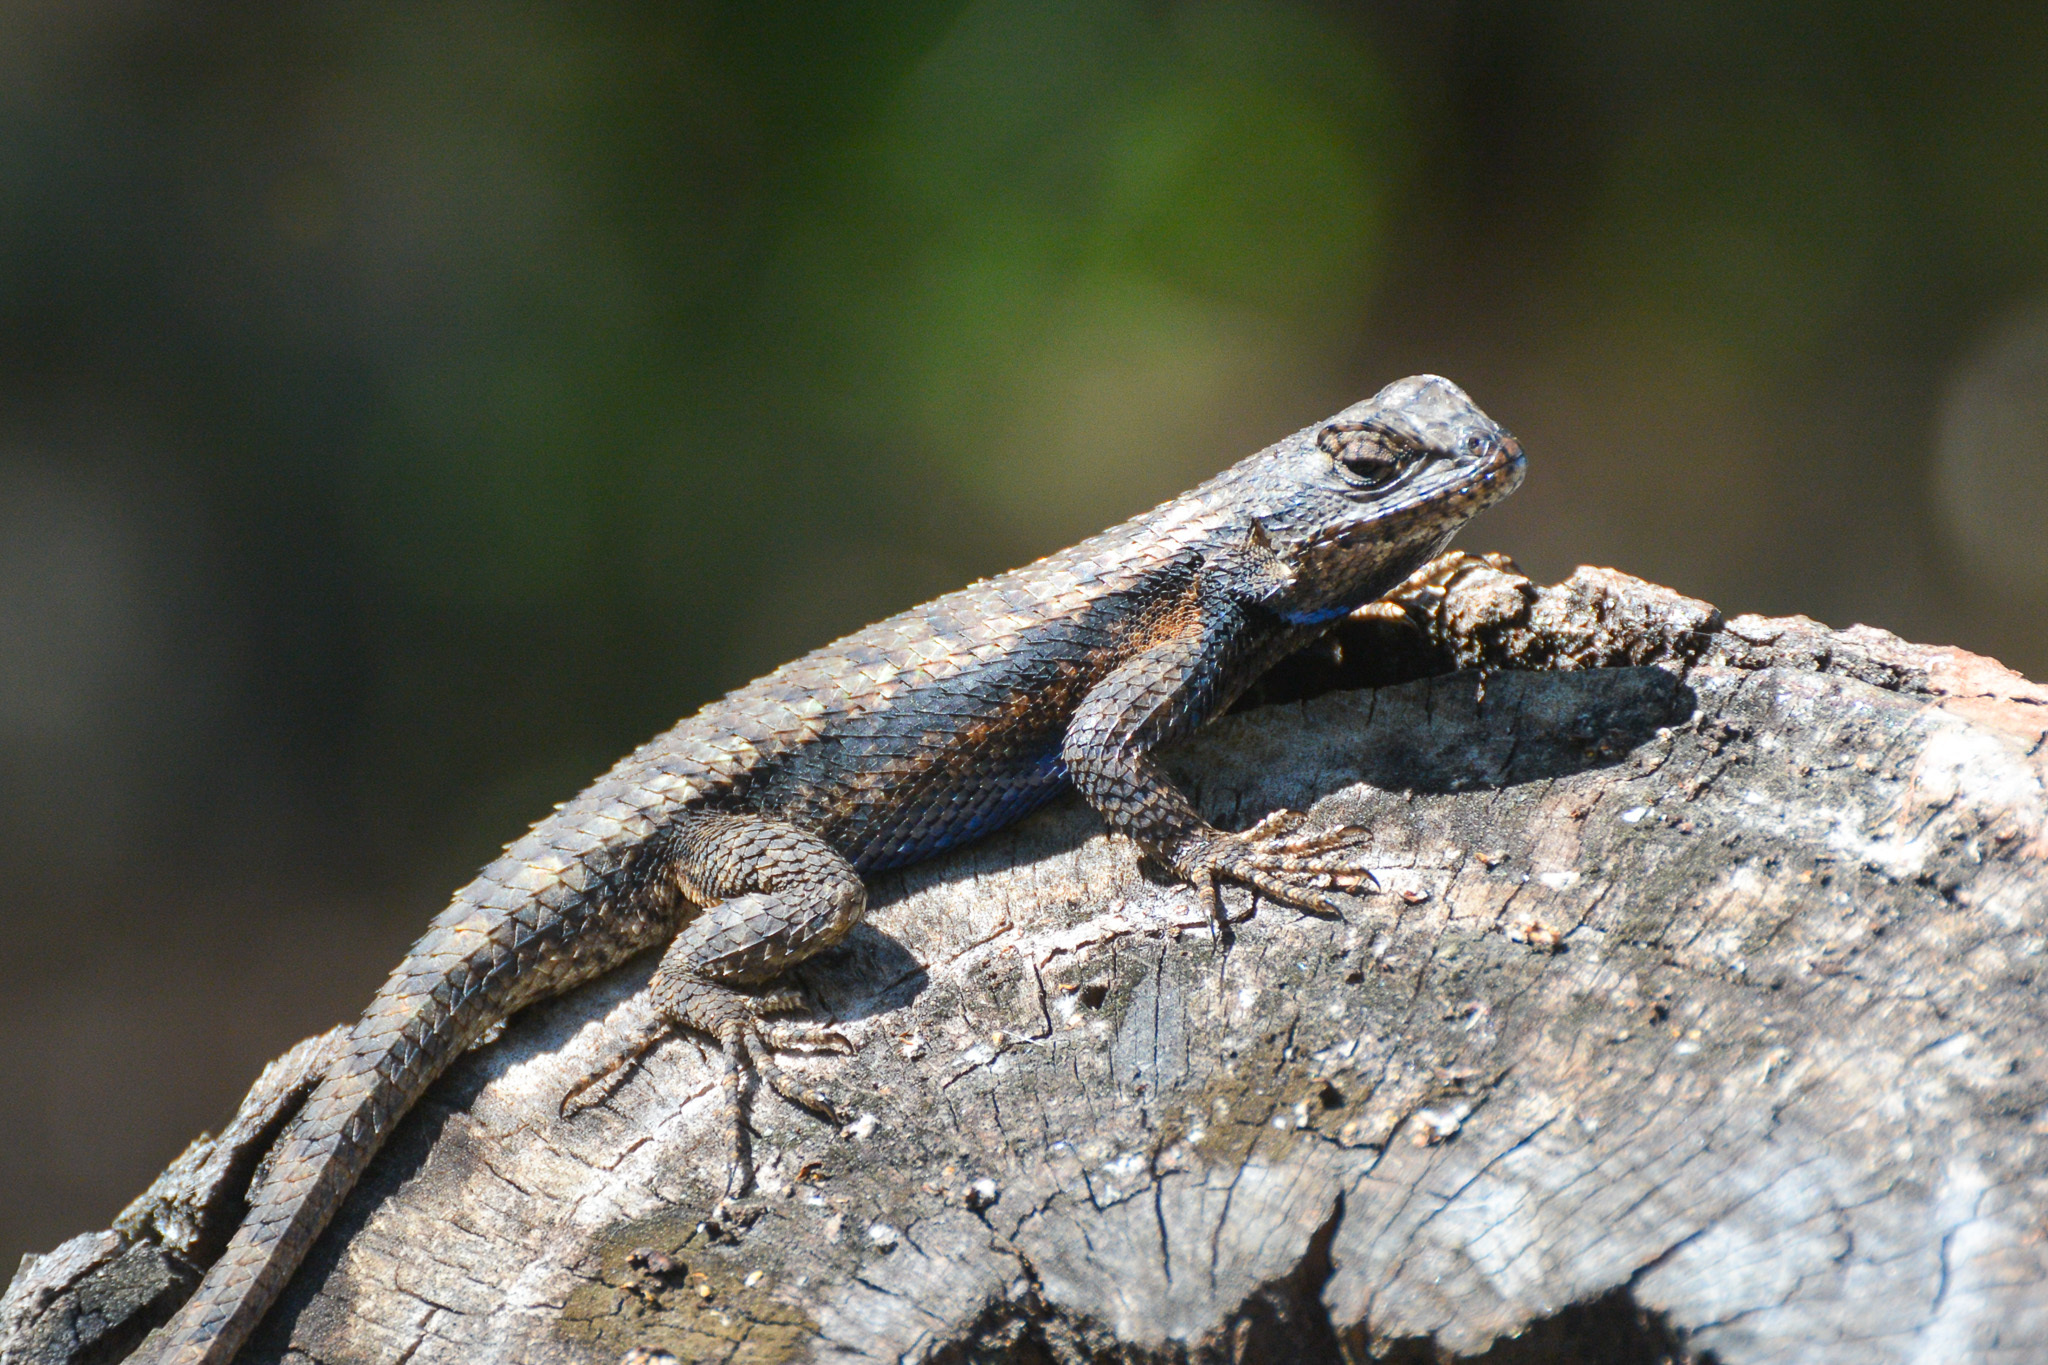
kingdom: Animalia
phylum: Chordata
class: Squamata
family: Phrynosomatidae
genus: Sceloporus
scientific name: Sceloporus consobrinus
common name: Southern prairie lizard
